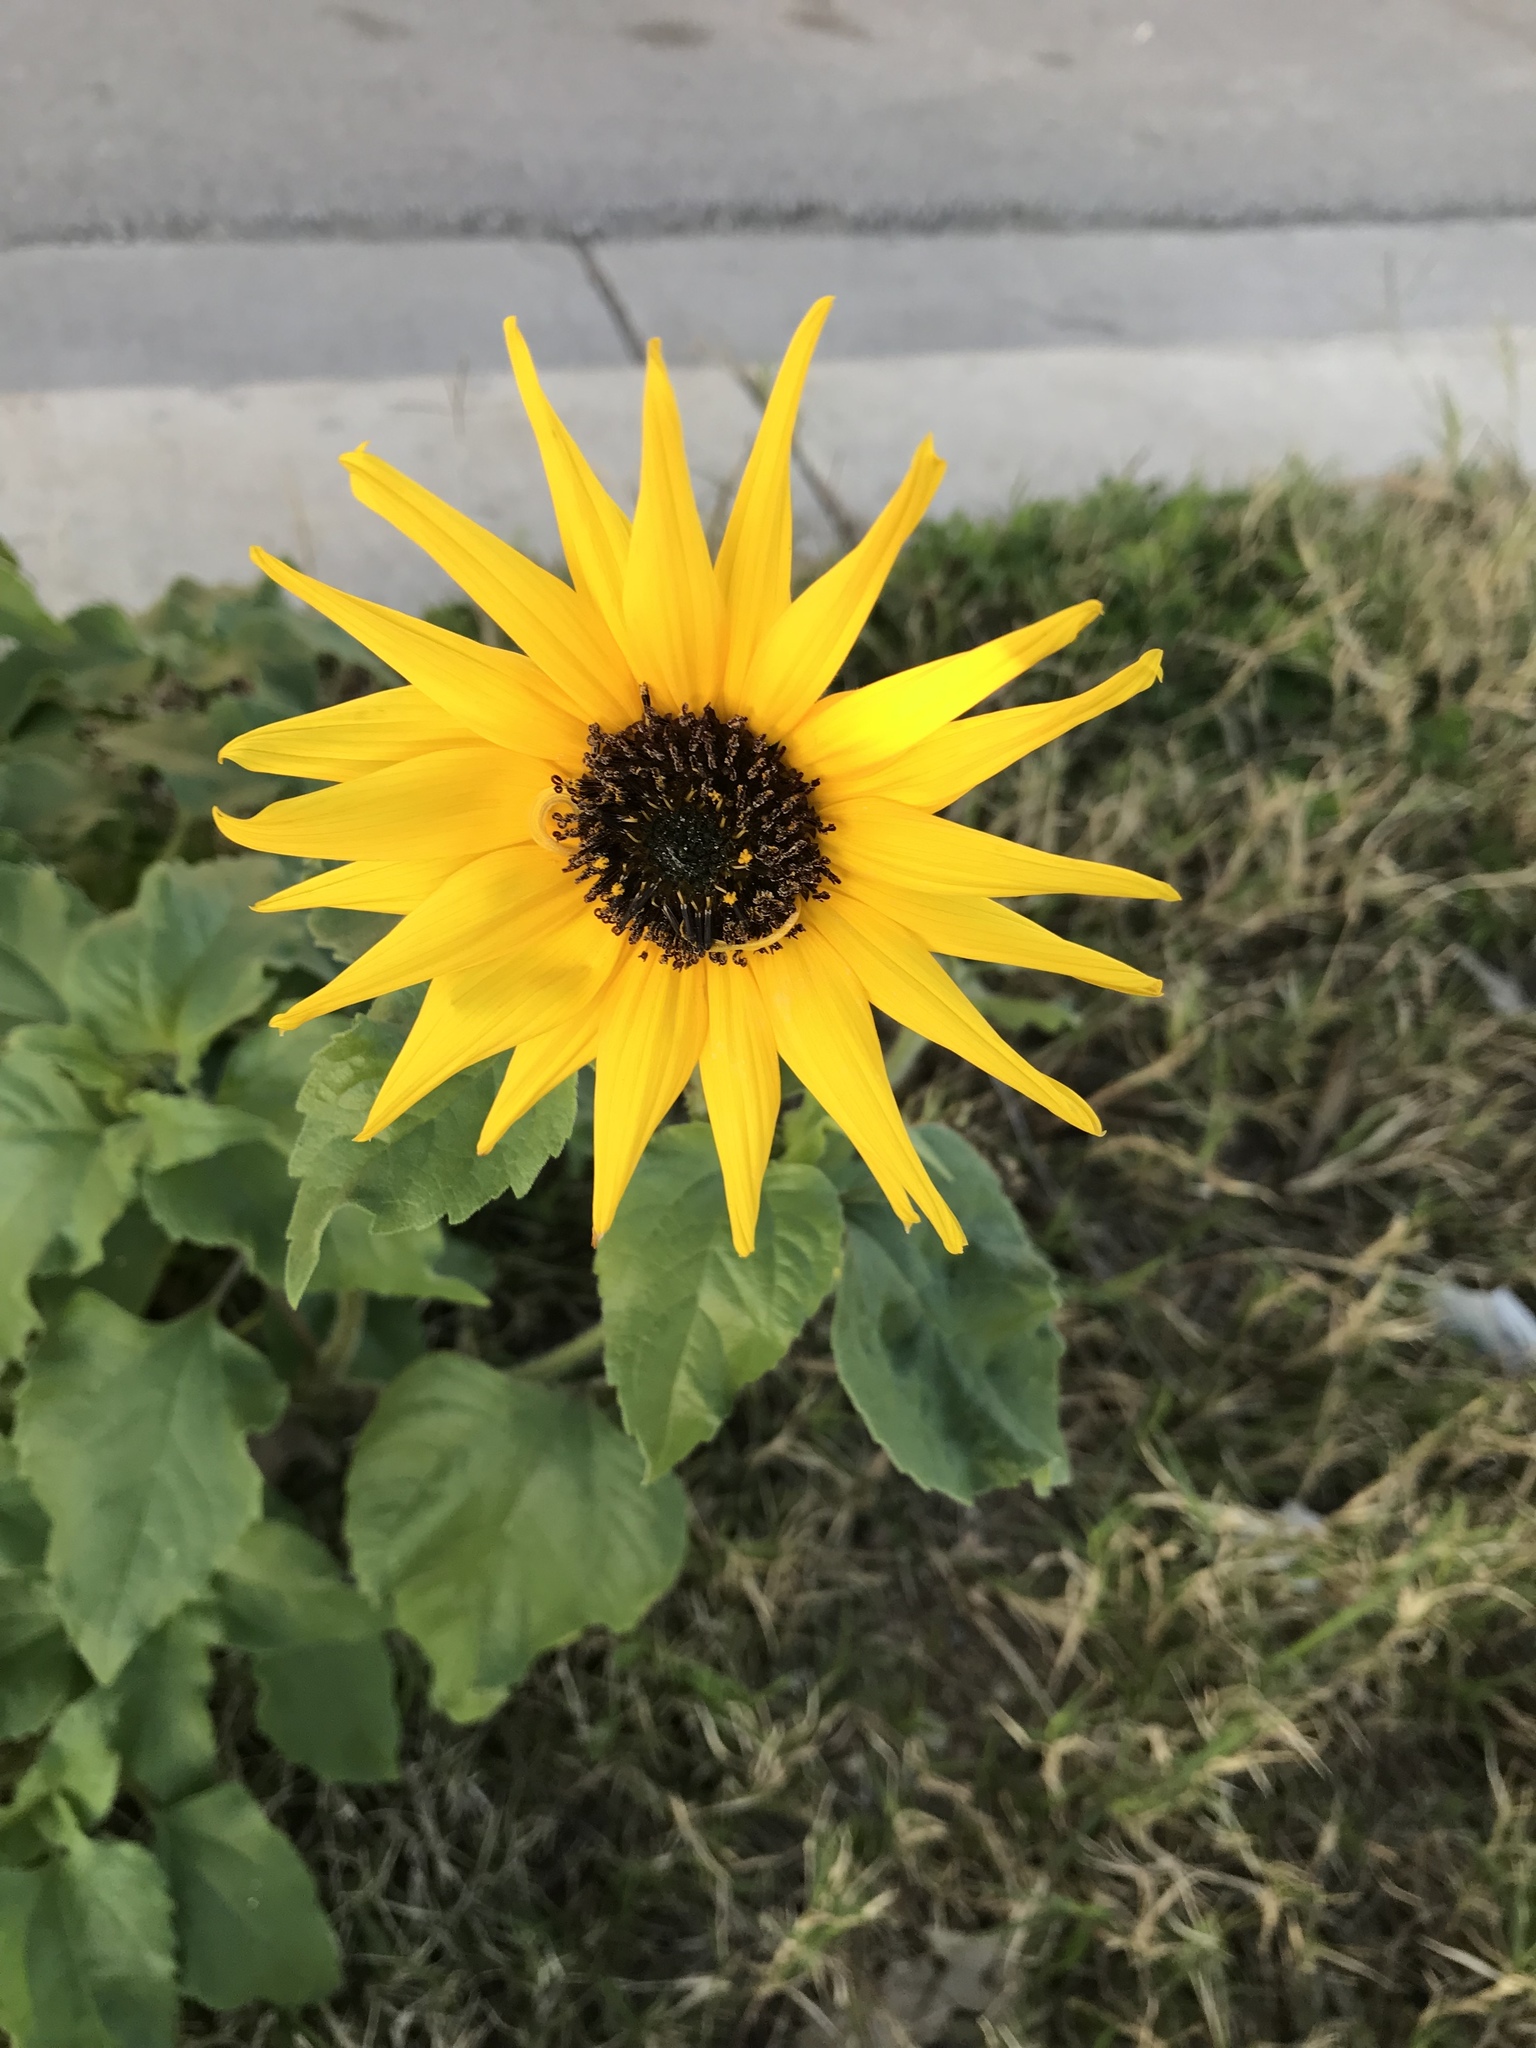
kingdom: Plantae
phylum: Tracheophyta
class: Magnoliopsida
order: Asterales
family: Asteraceae
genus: Helianthus
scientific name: Helianthus annuus
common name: Sunflower
